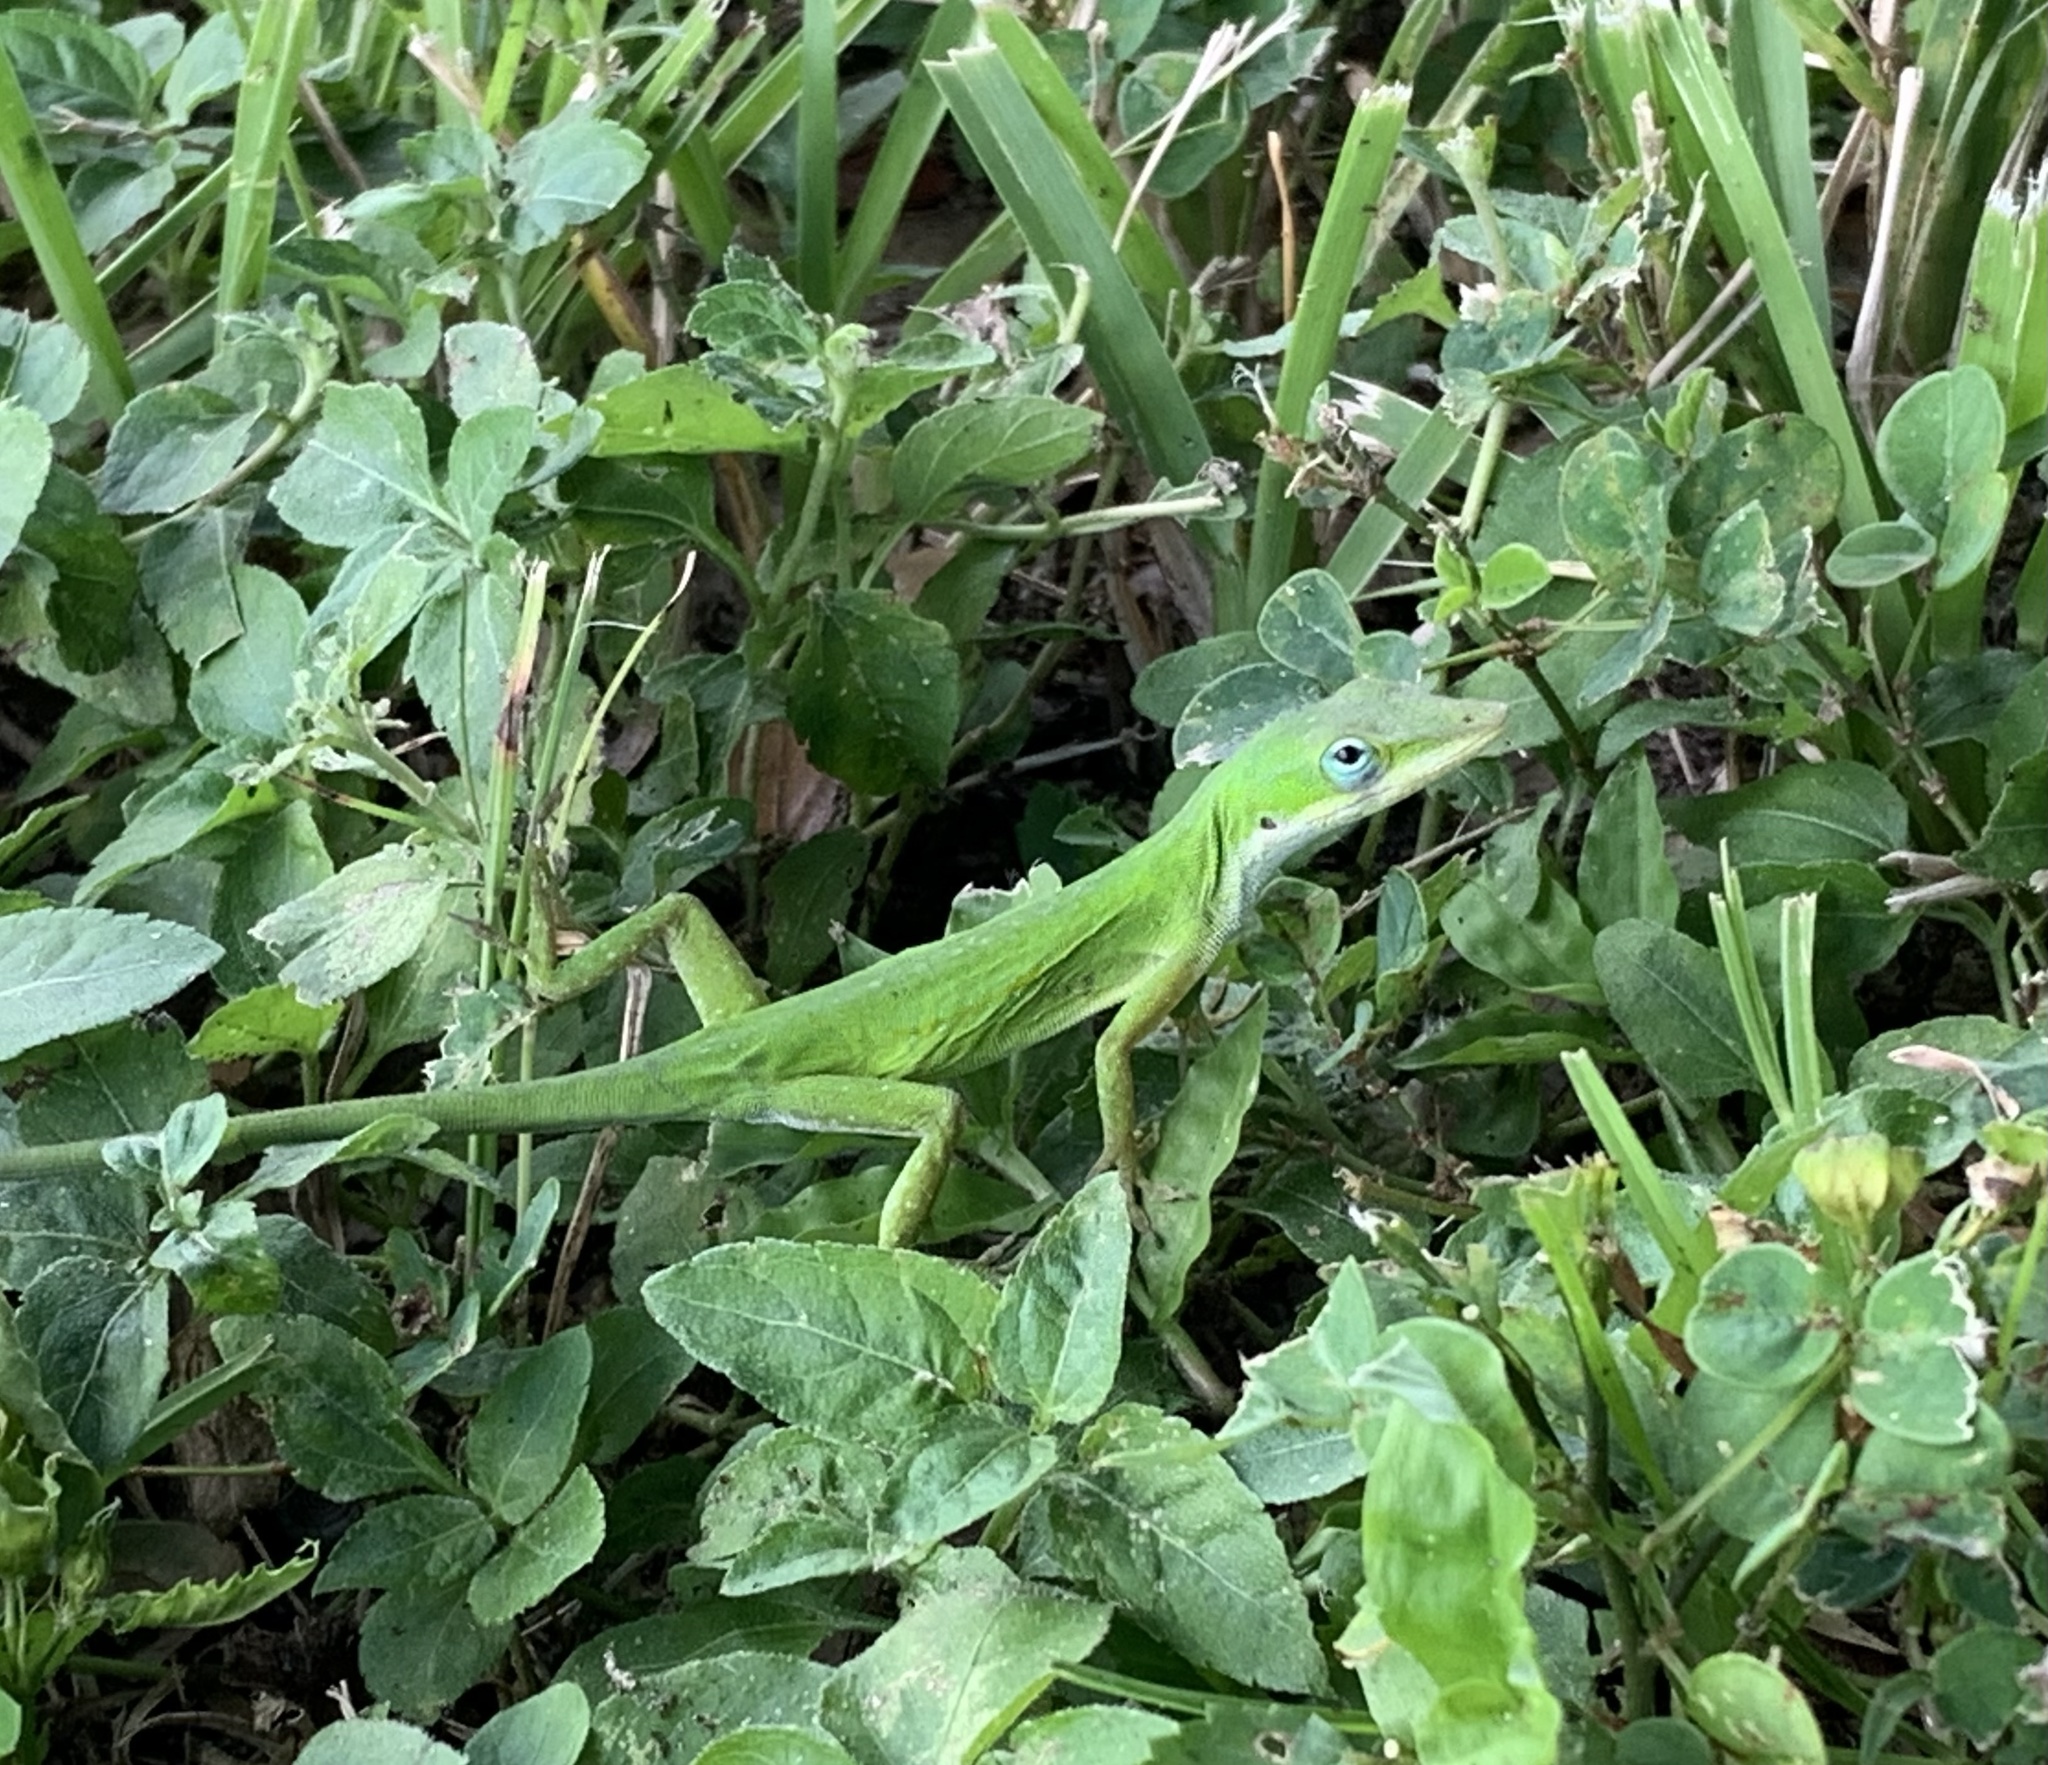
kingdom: Animalia
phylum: Chordata
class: Squamata
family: Dactyloidae
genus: Anolis
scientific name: Anolis carolinensis
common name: Green anole
